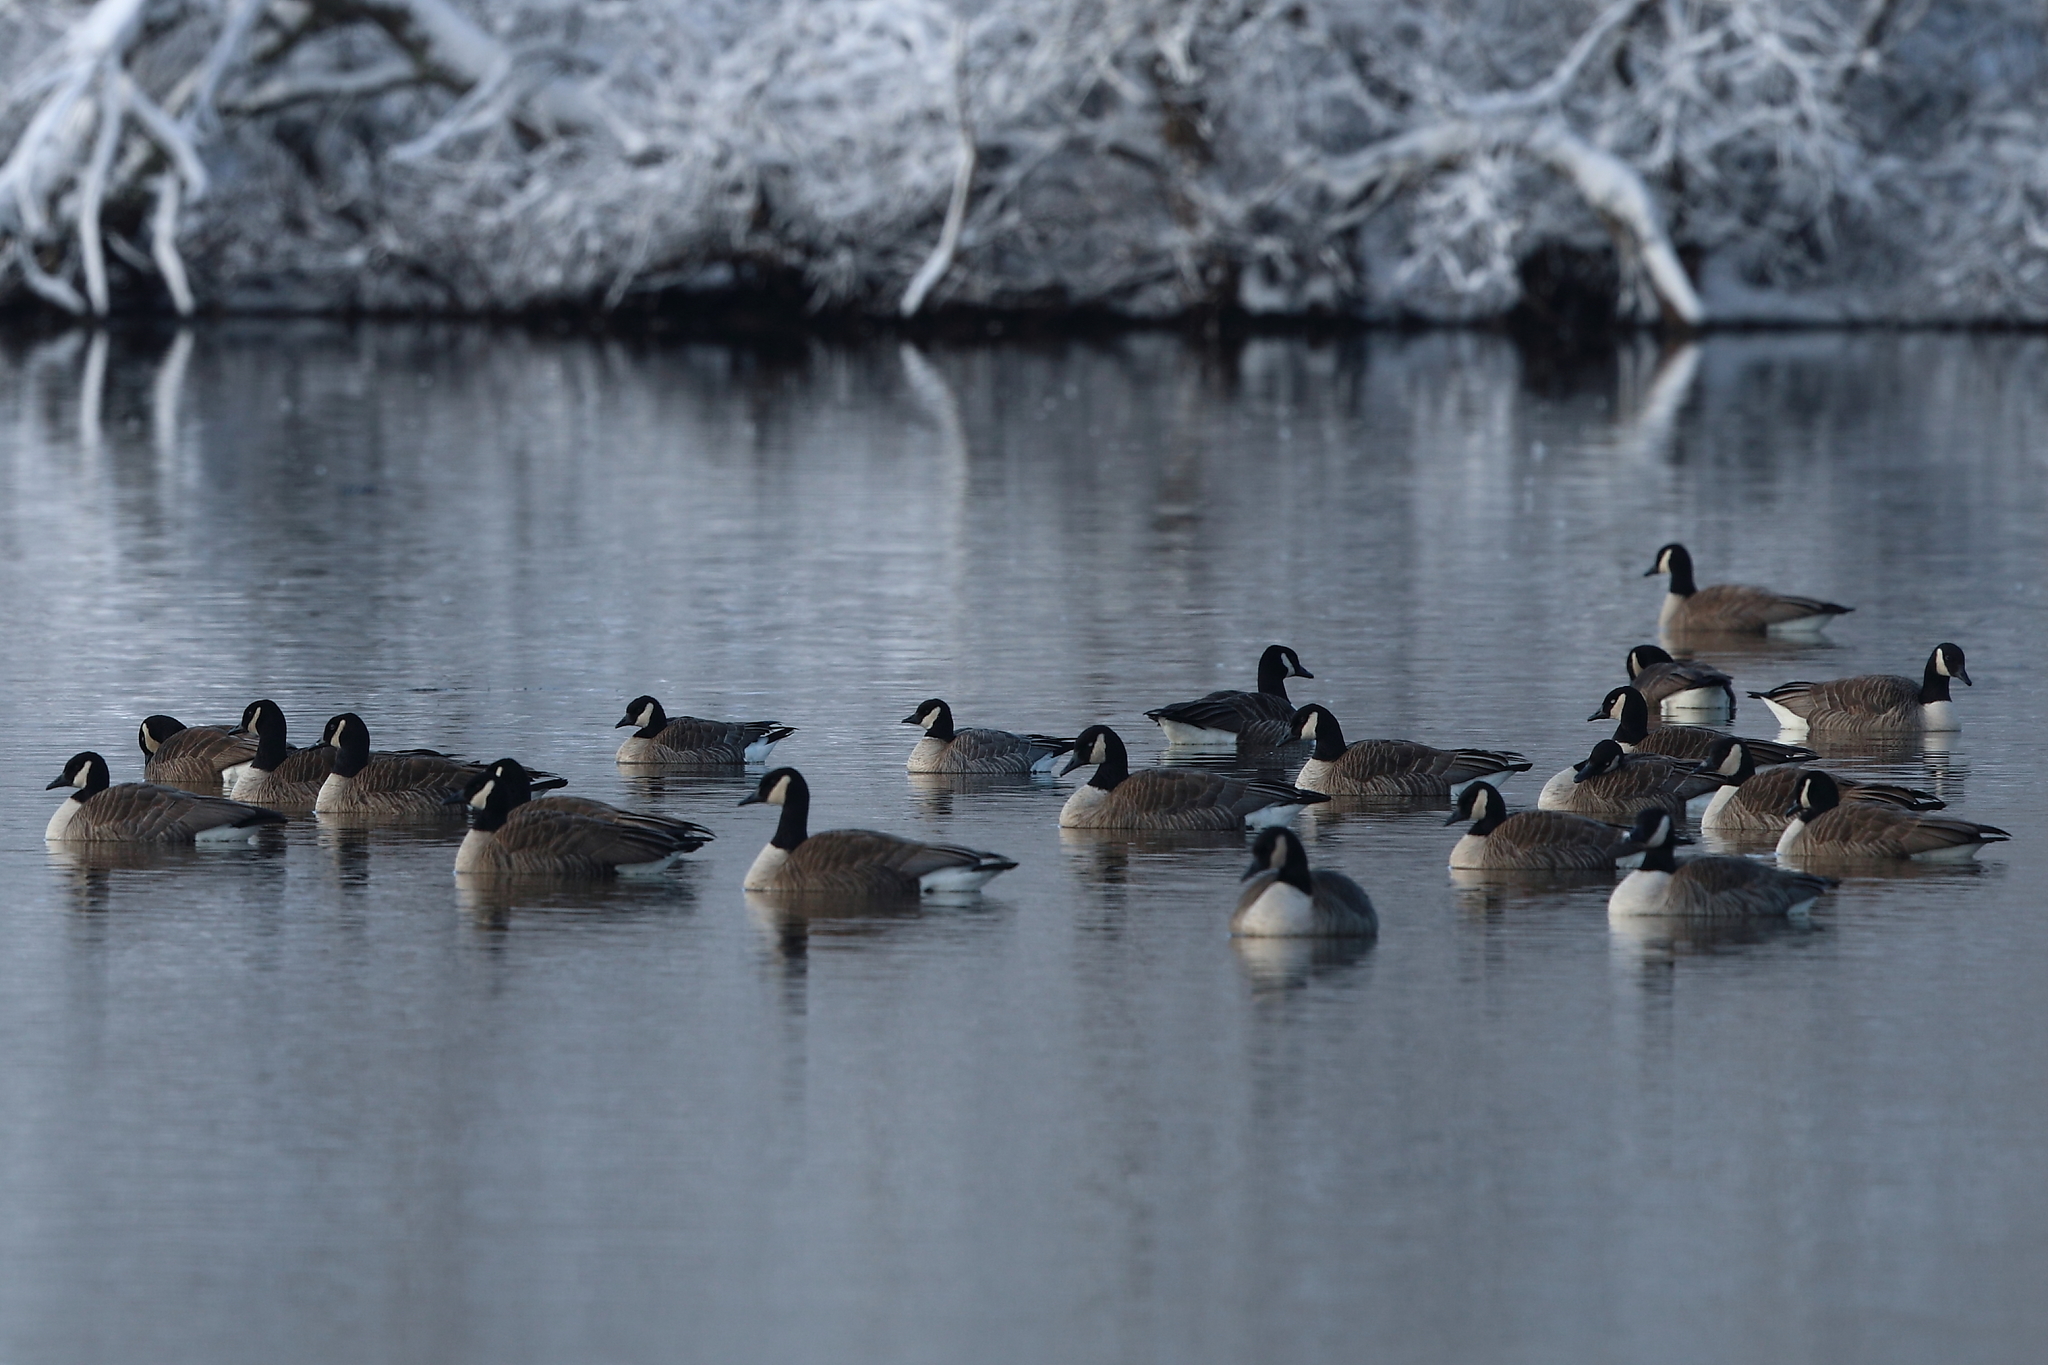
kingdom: Animalia
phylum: Chordata
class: Aves
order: Anseriformes
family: Anatidae
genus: Branta
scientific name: Branta canadensis
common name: Canada goose
